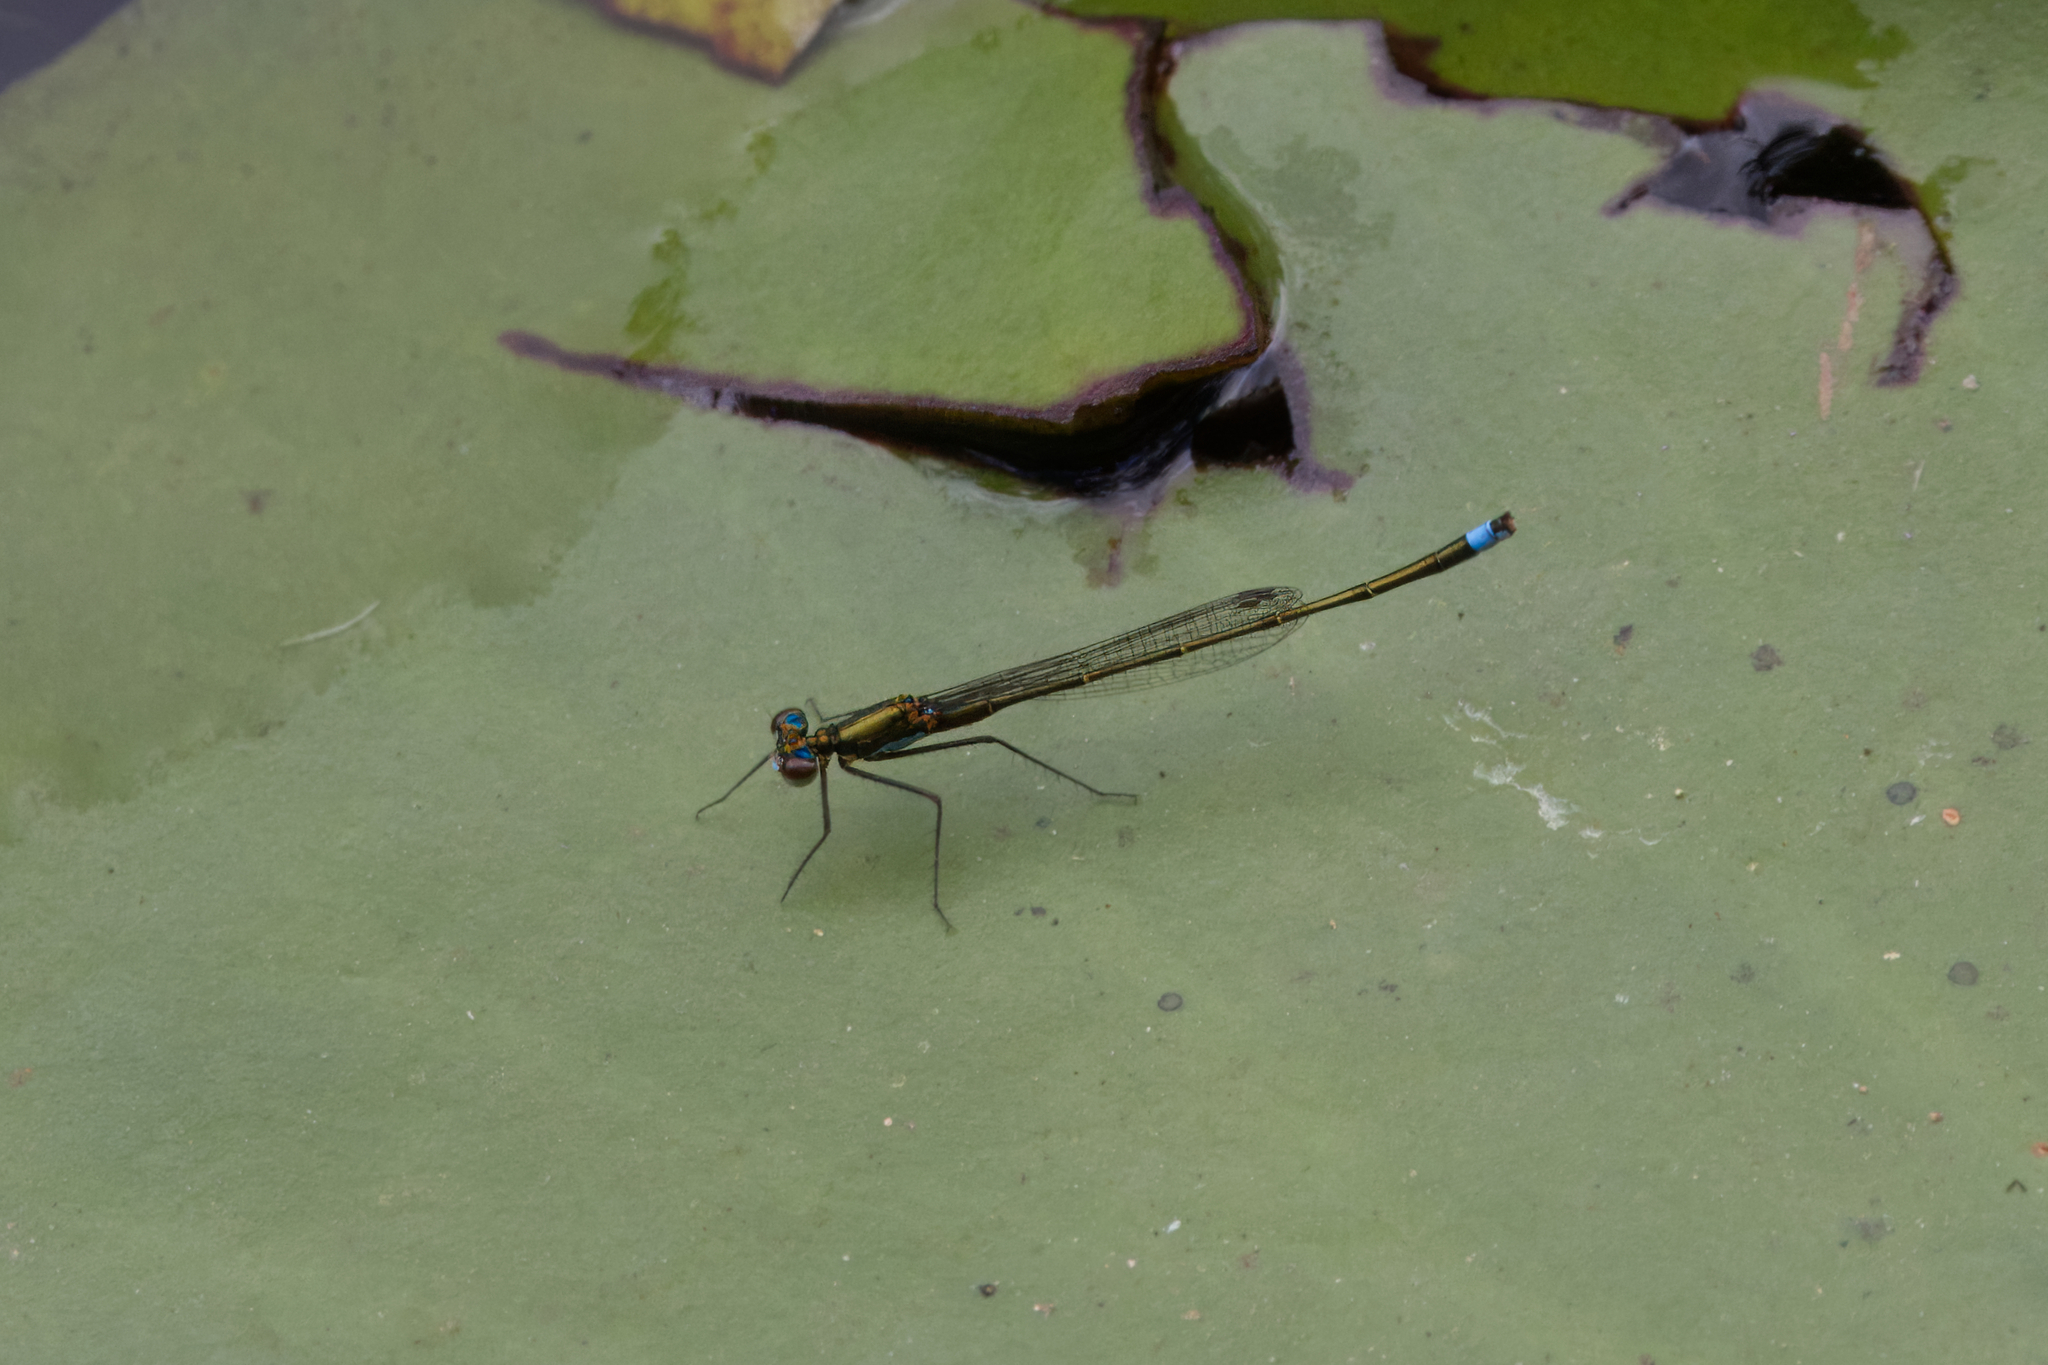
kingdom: Animalia
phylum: Arthropoda
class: Insecta
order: Odonata
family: Coenagrionidae
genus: Austrocnemis
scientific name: Austrocnemis splendida
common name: Splendid longlegs
